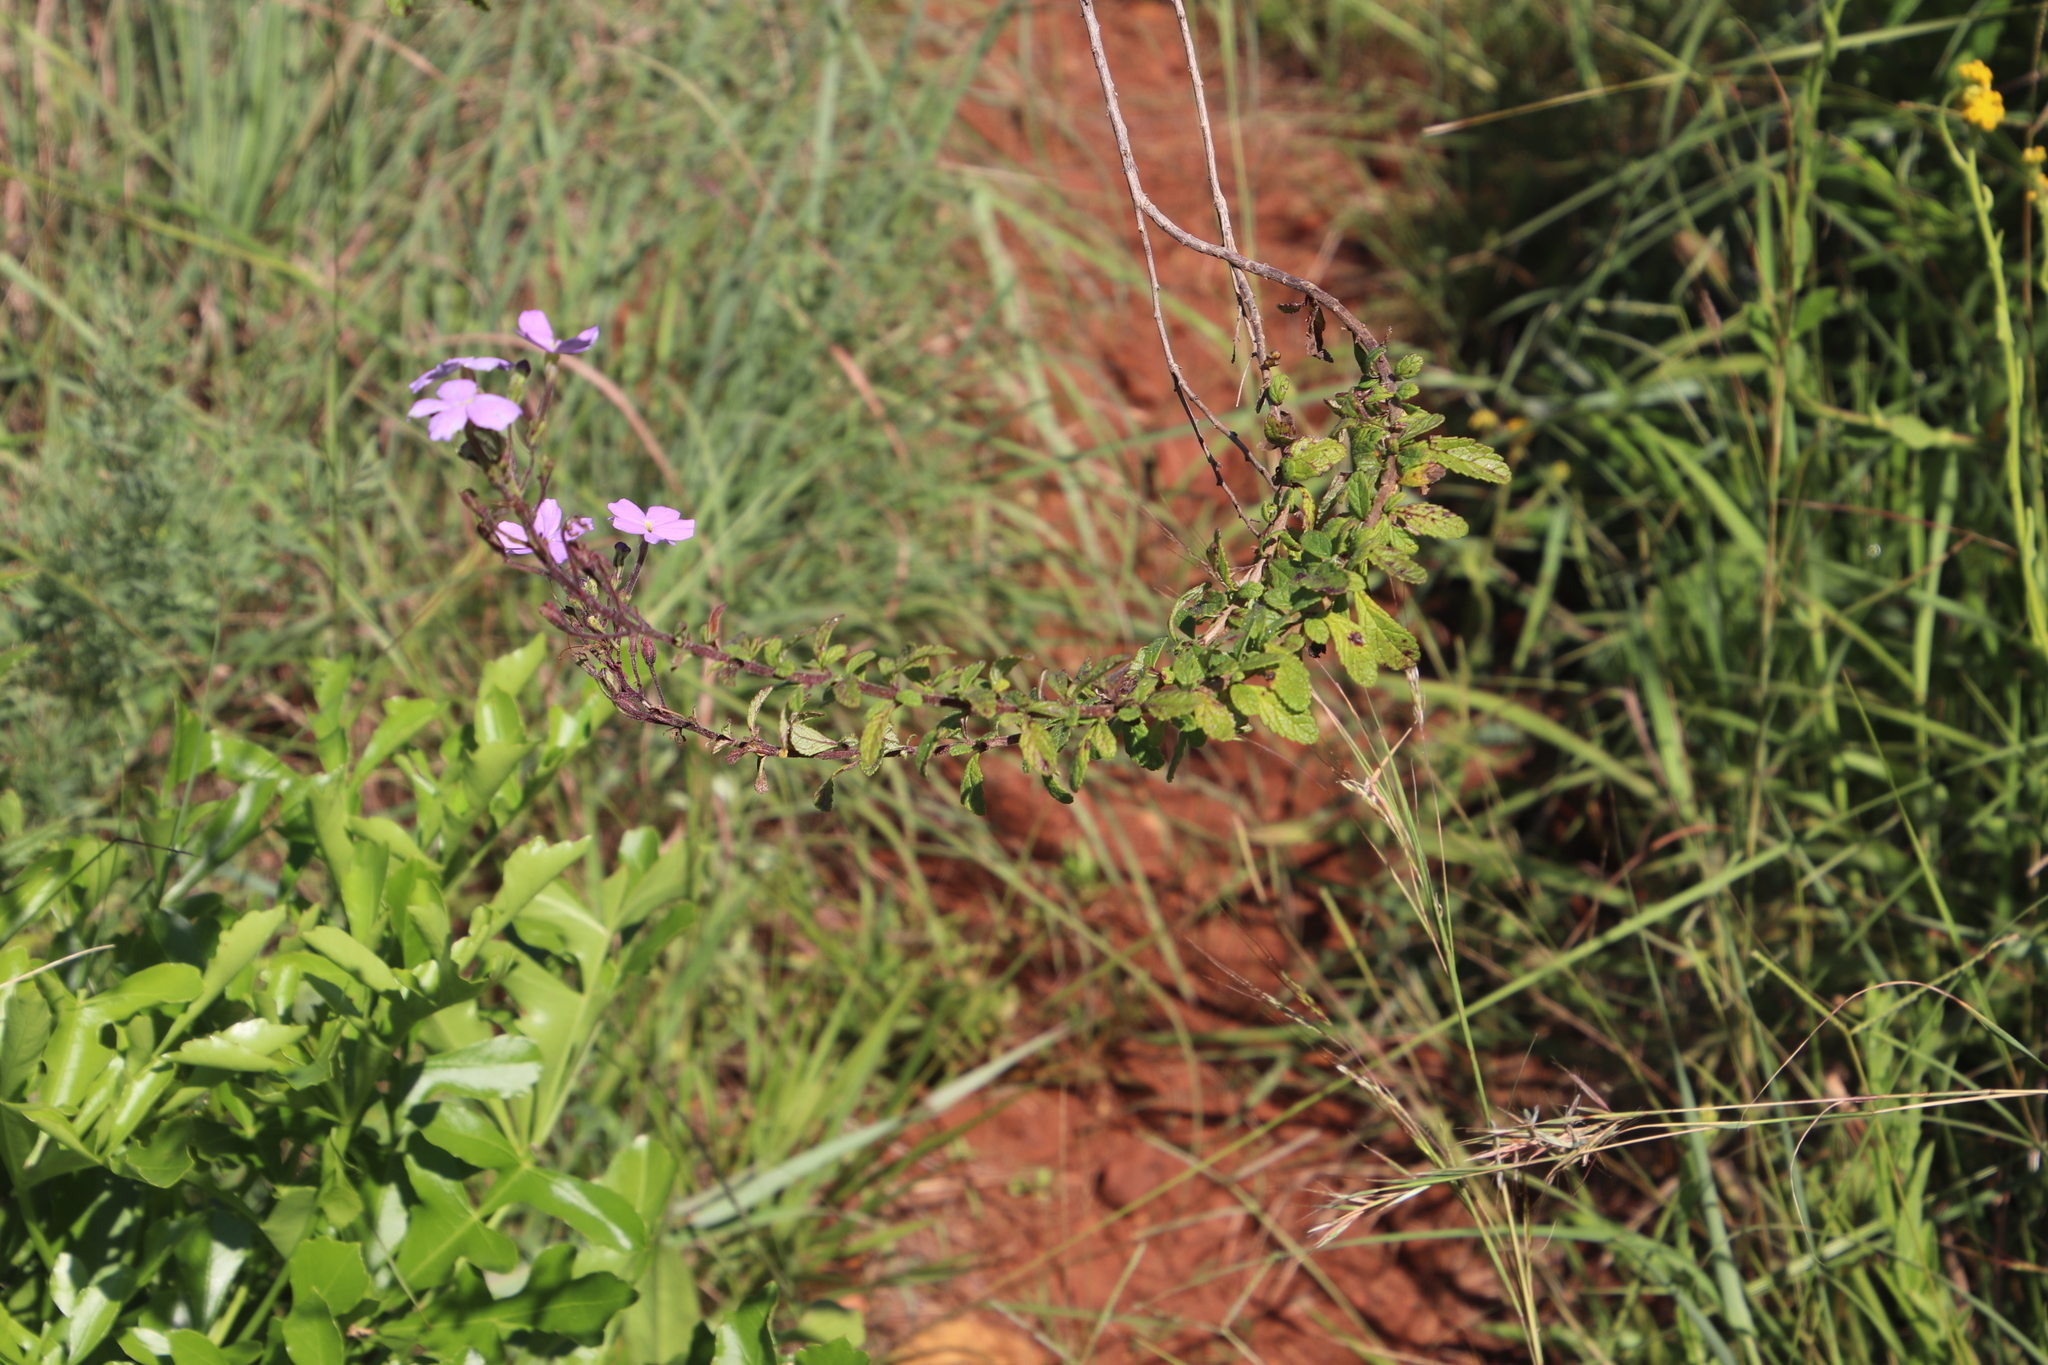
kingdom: Plantae
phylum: Tracheophyta
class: Magnoliopsida
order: Lamiales
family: Scrophulariaceae
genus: Jamesbrittenia
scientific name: Jamesbrittenia grandiflora
